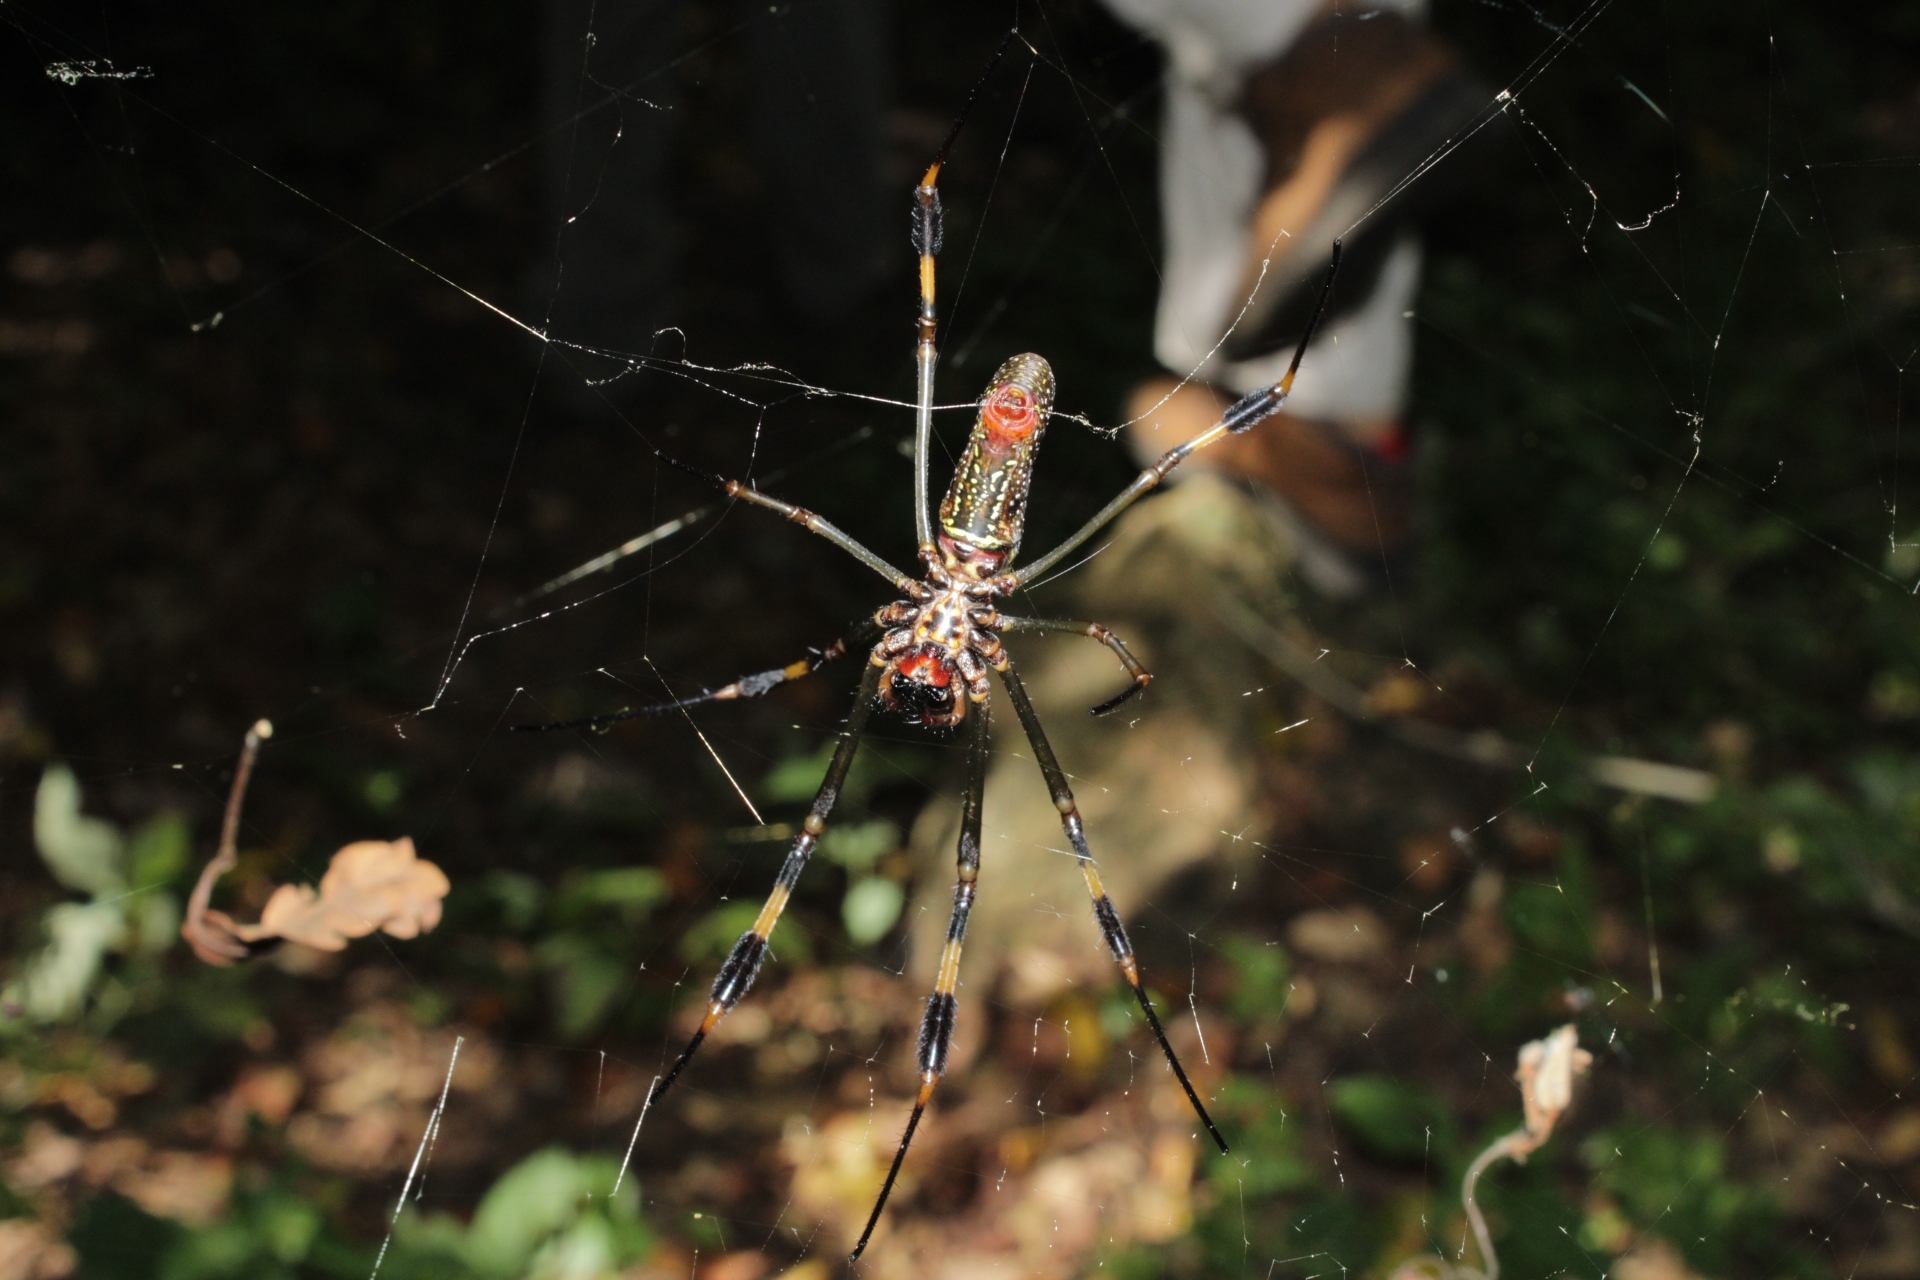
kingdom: Animalia
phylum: Arthropoda
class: Arachnida
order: Araneae
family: Araneidae
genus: Trichonephila
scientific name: Trichonephila clavipes
